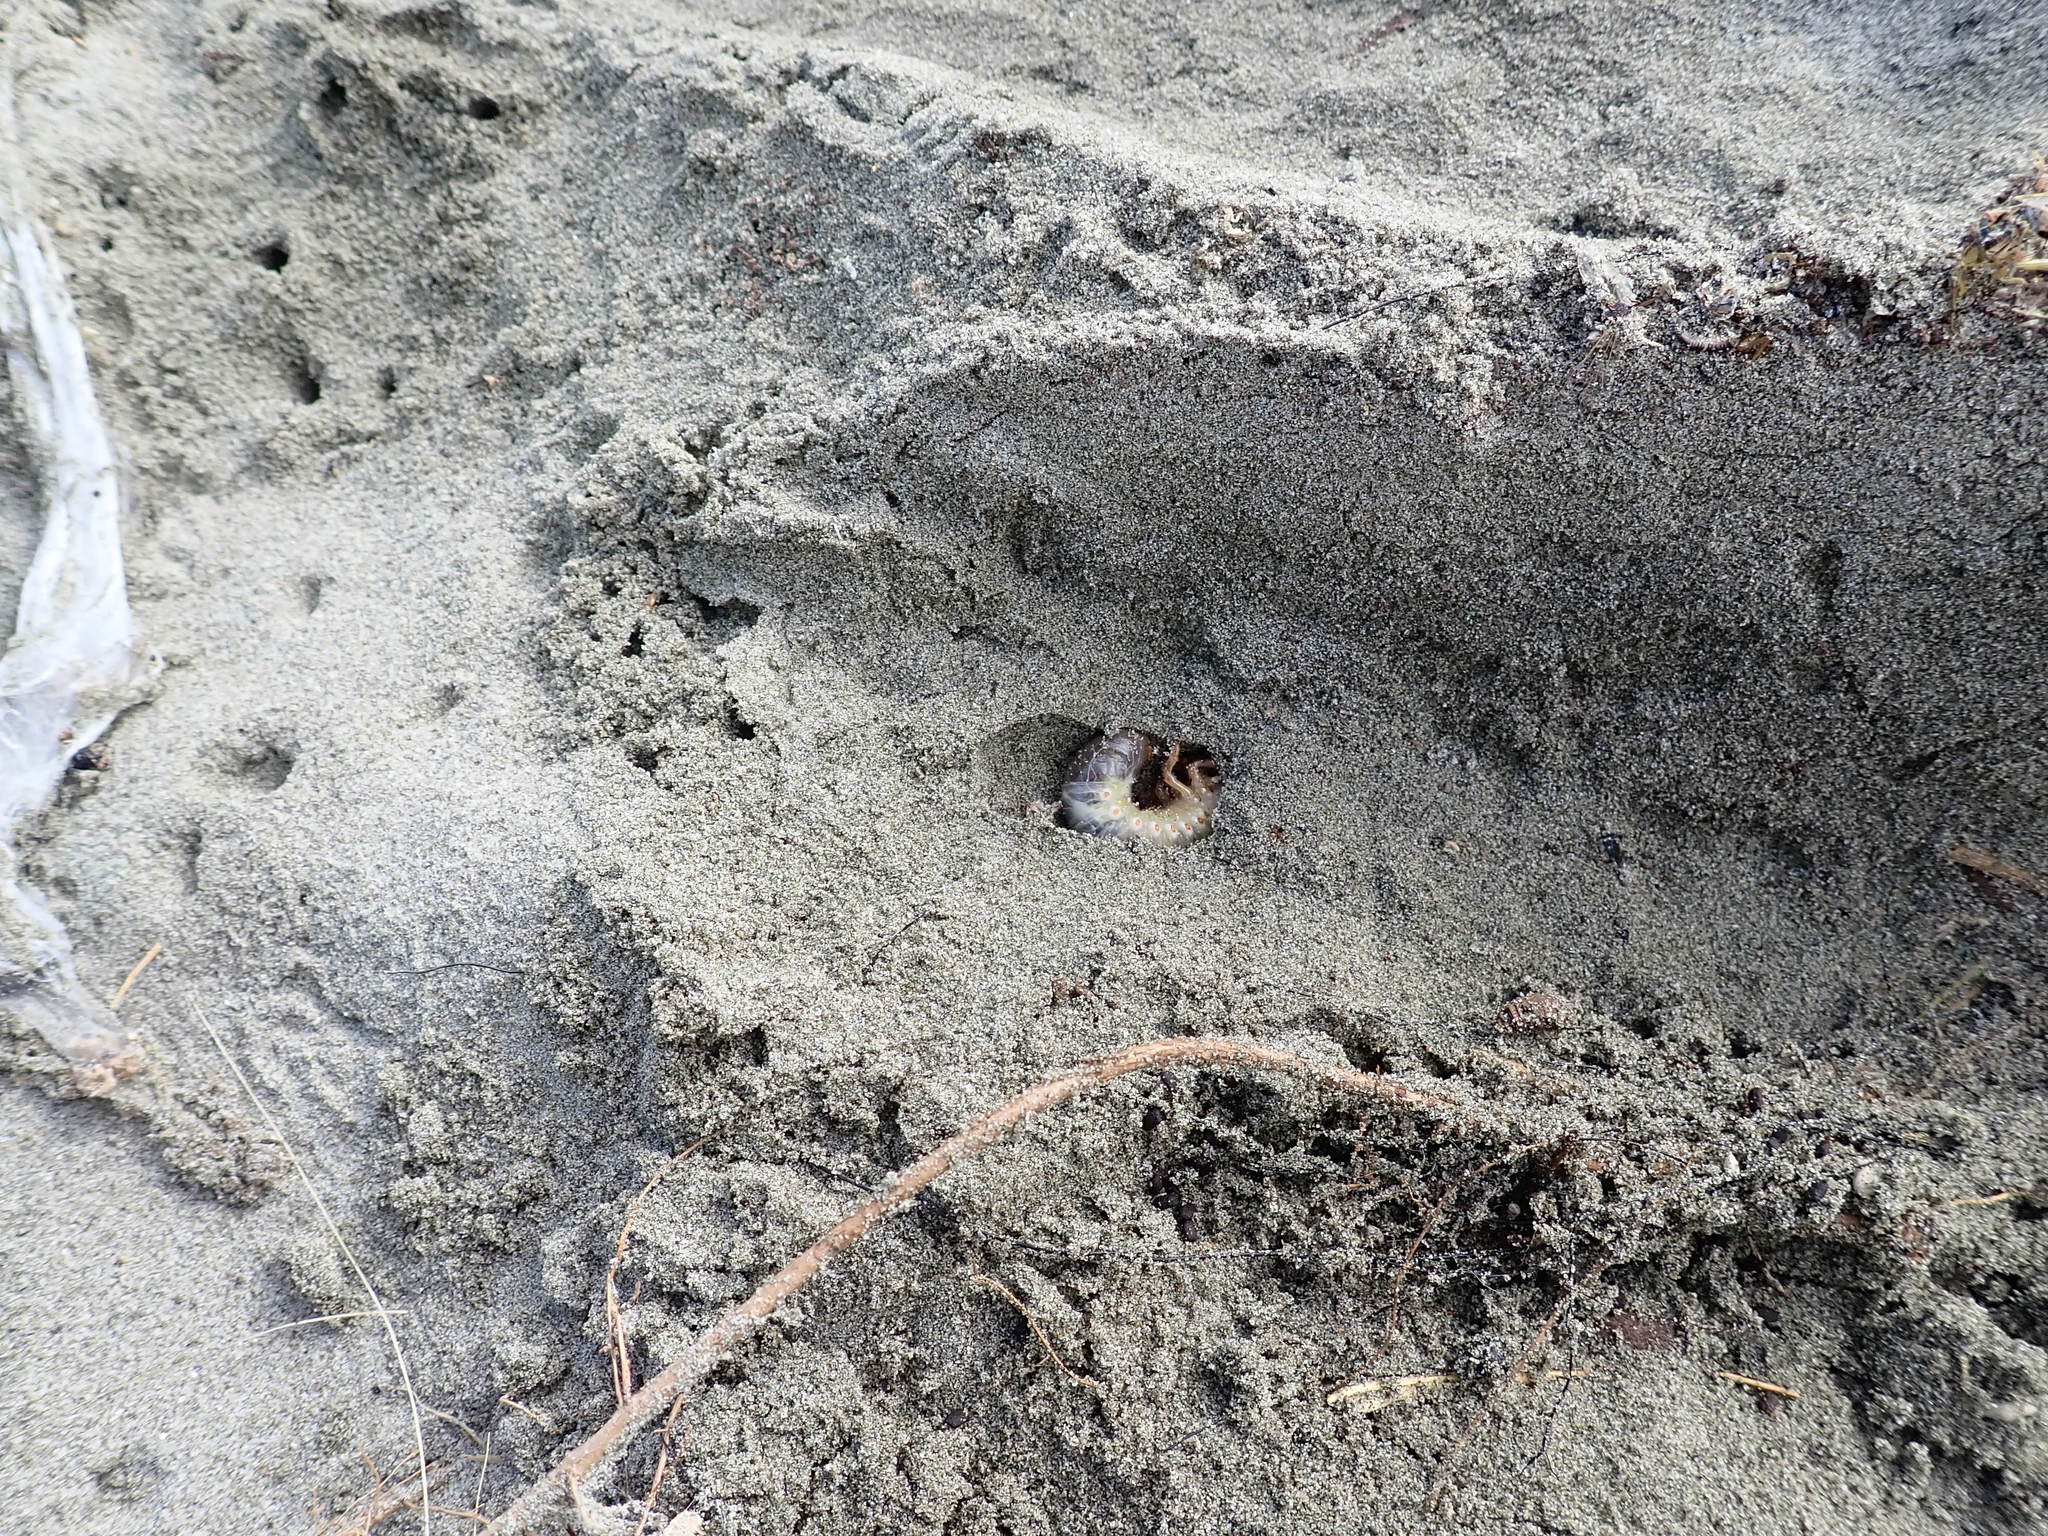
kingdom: Animalia
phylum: Arthropoda
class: Insecta
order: Coleoptera
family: Scarabaeidae
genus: Pericoptus
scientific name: Pericoptus truncatus
